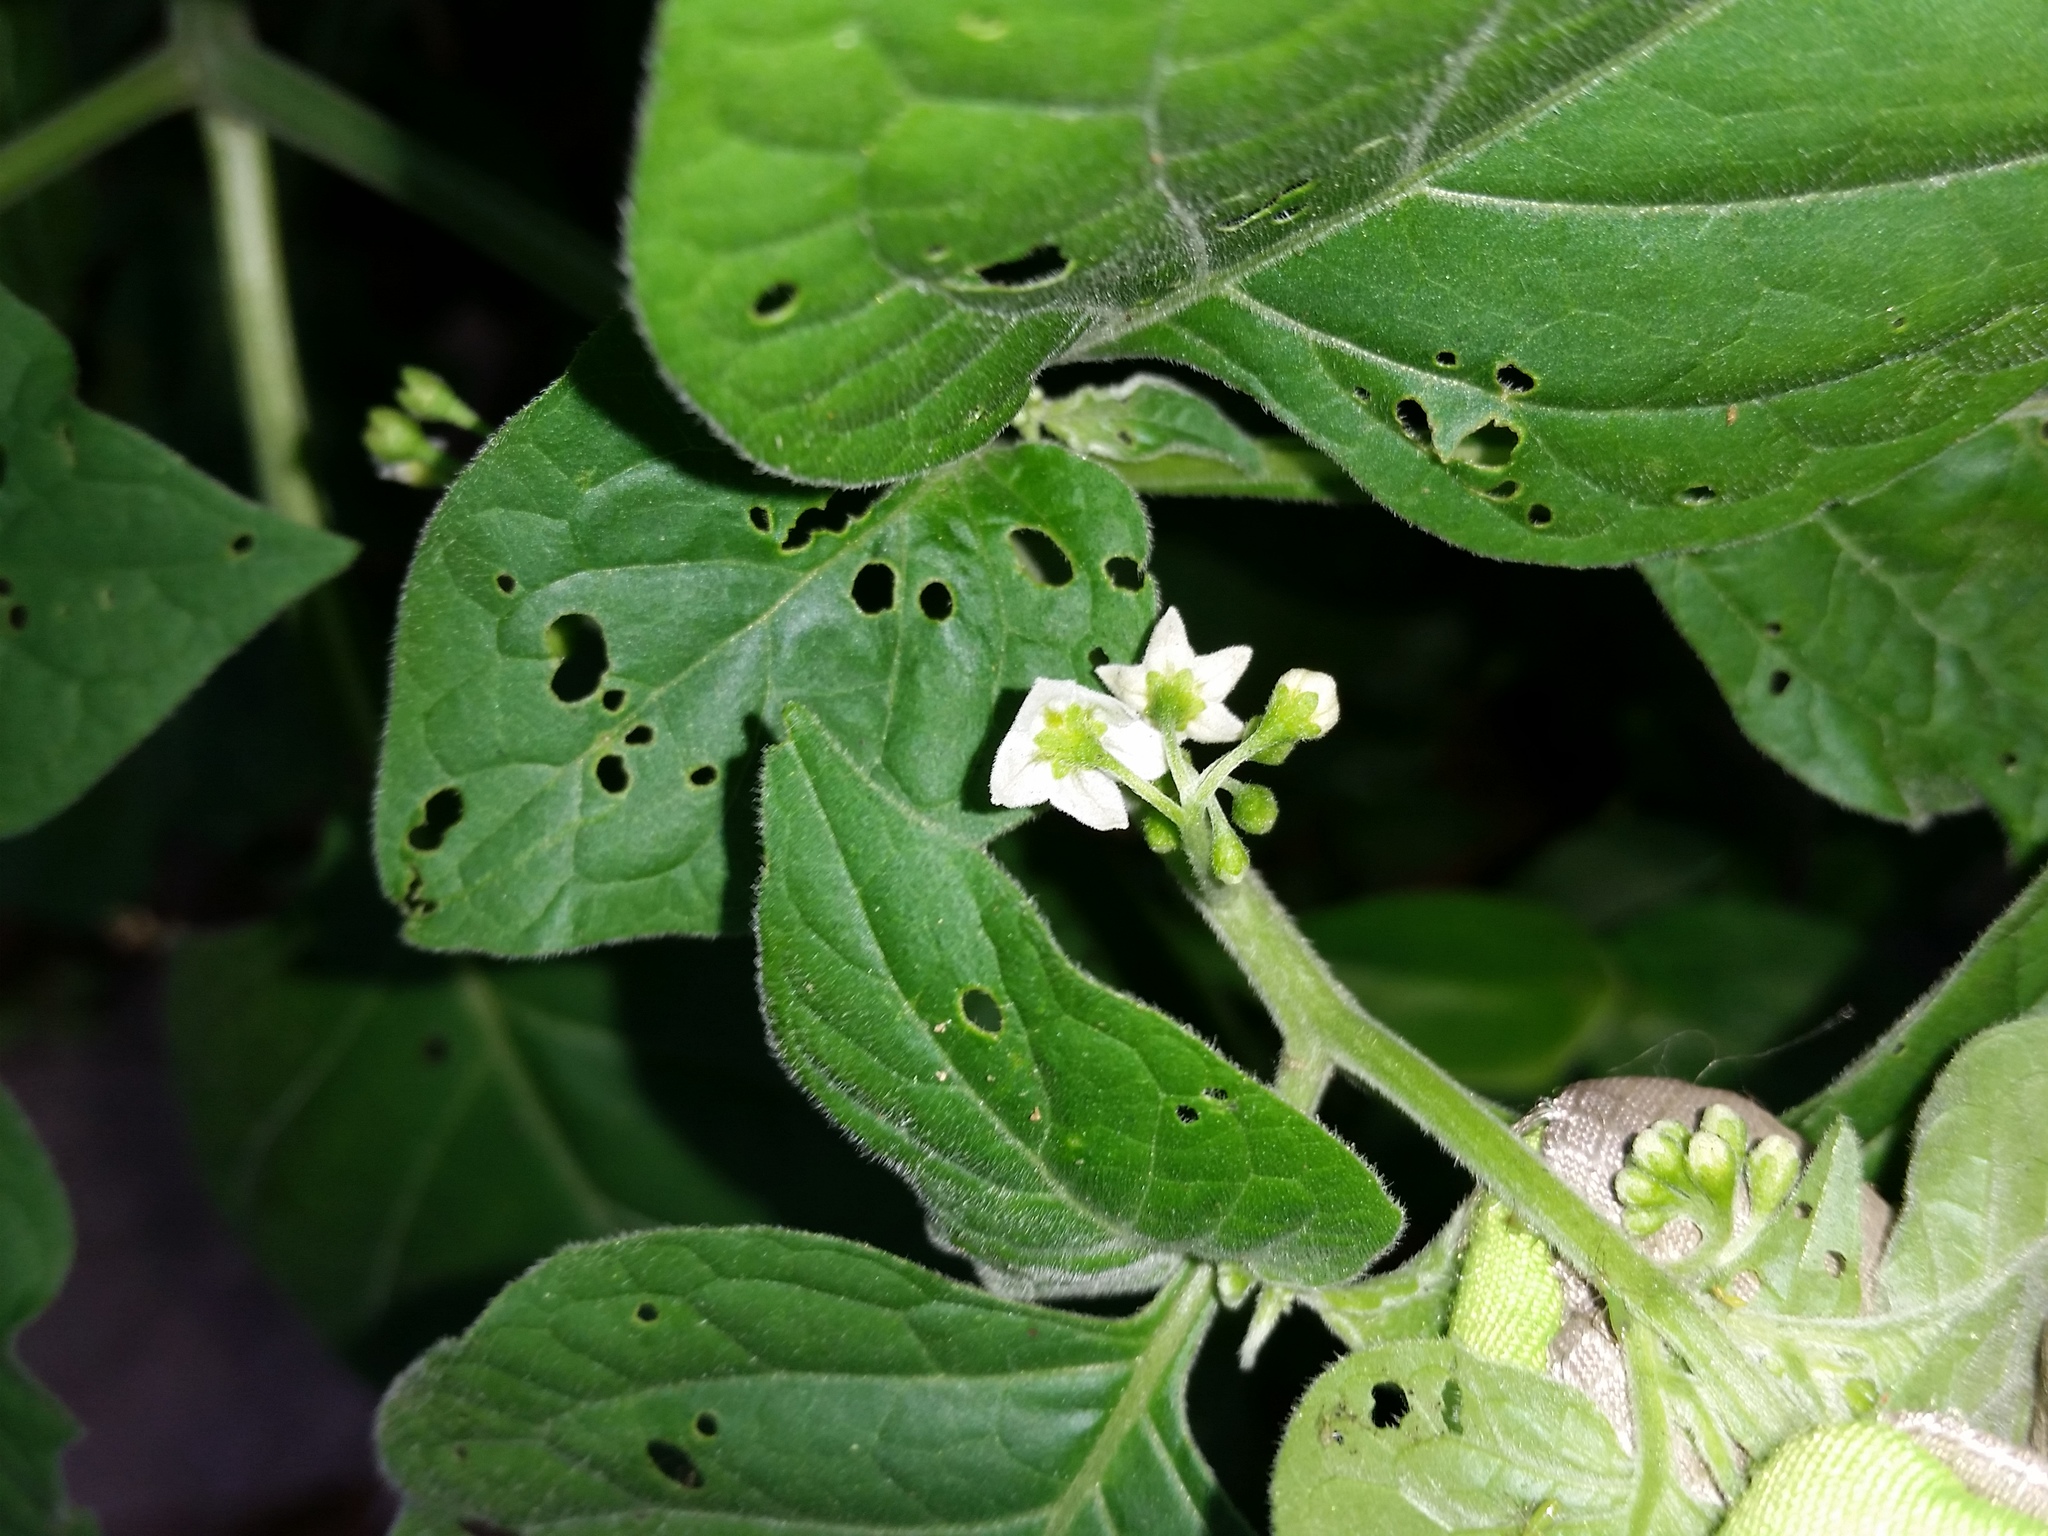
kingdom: Plantae
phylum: Tracheophyta
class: Magnoliopsida
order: Solanales
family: Solanaceae
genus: Solanum
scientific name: Solanum nigrum
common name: Black nightshade
